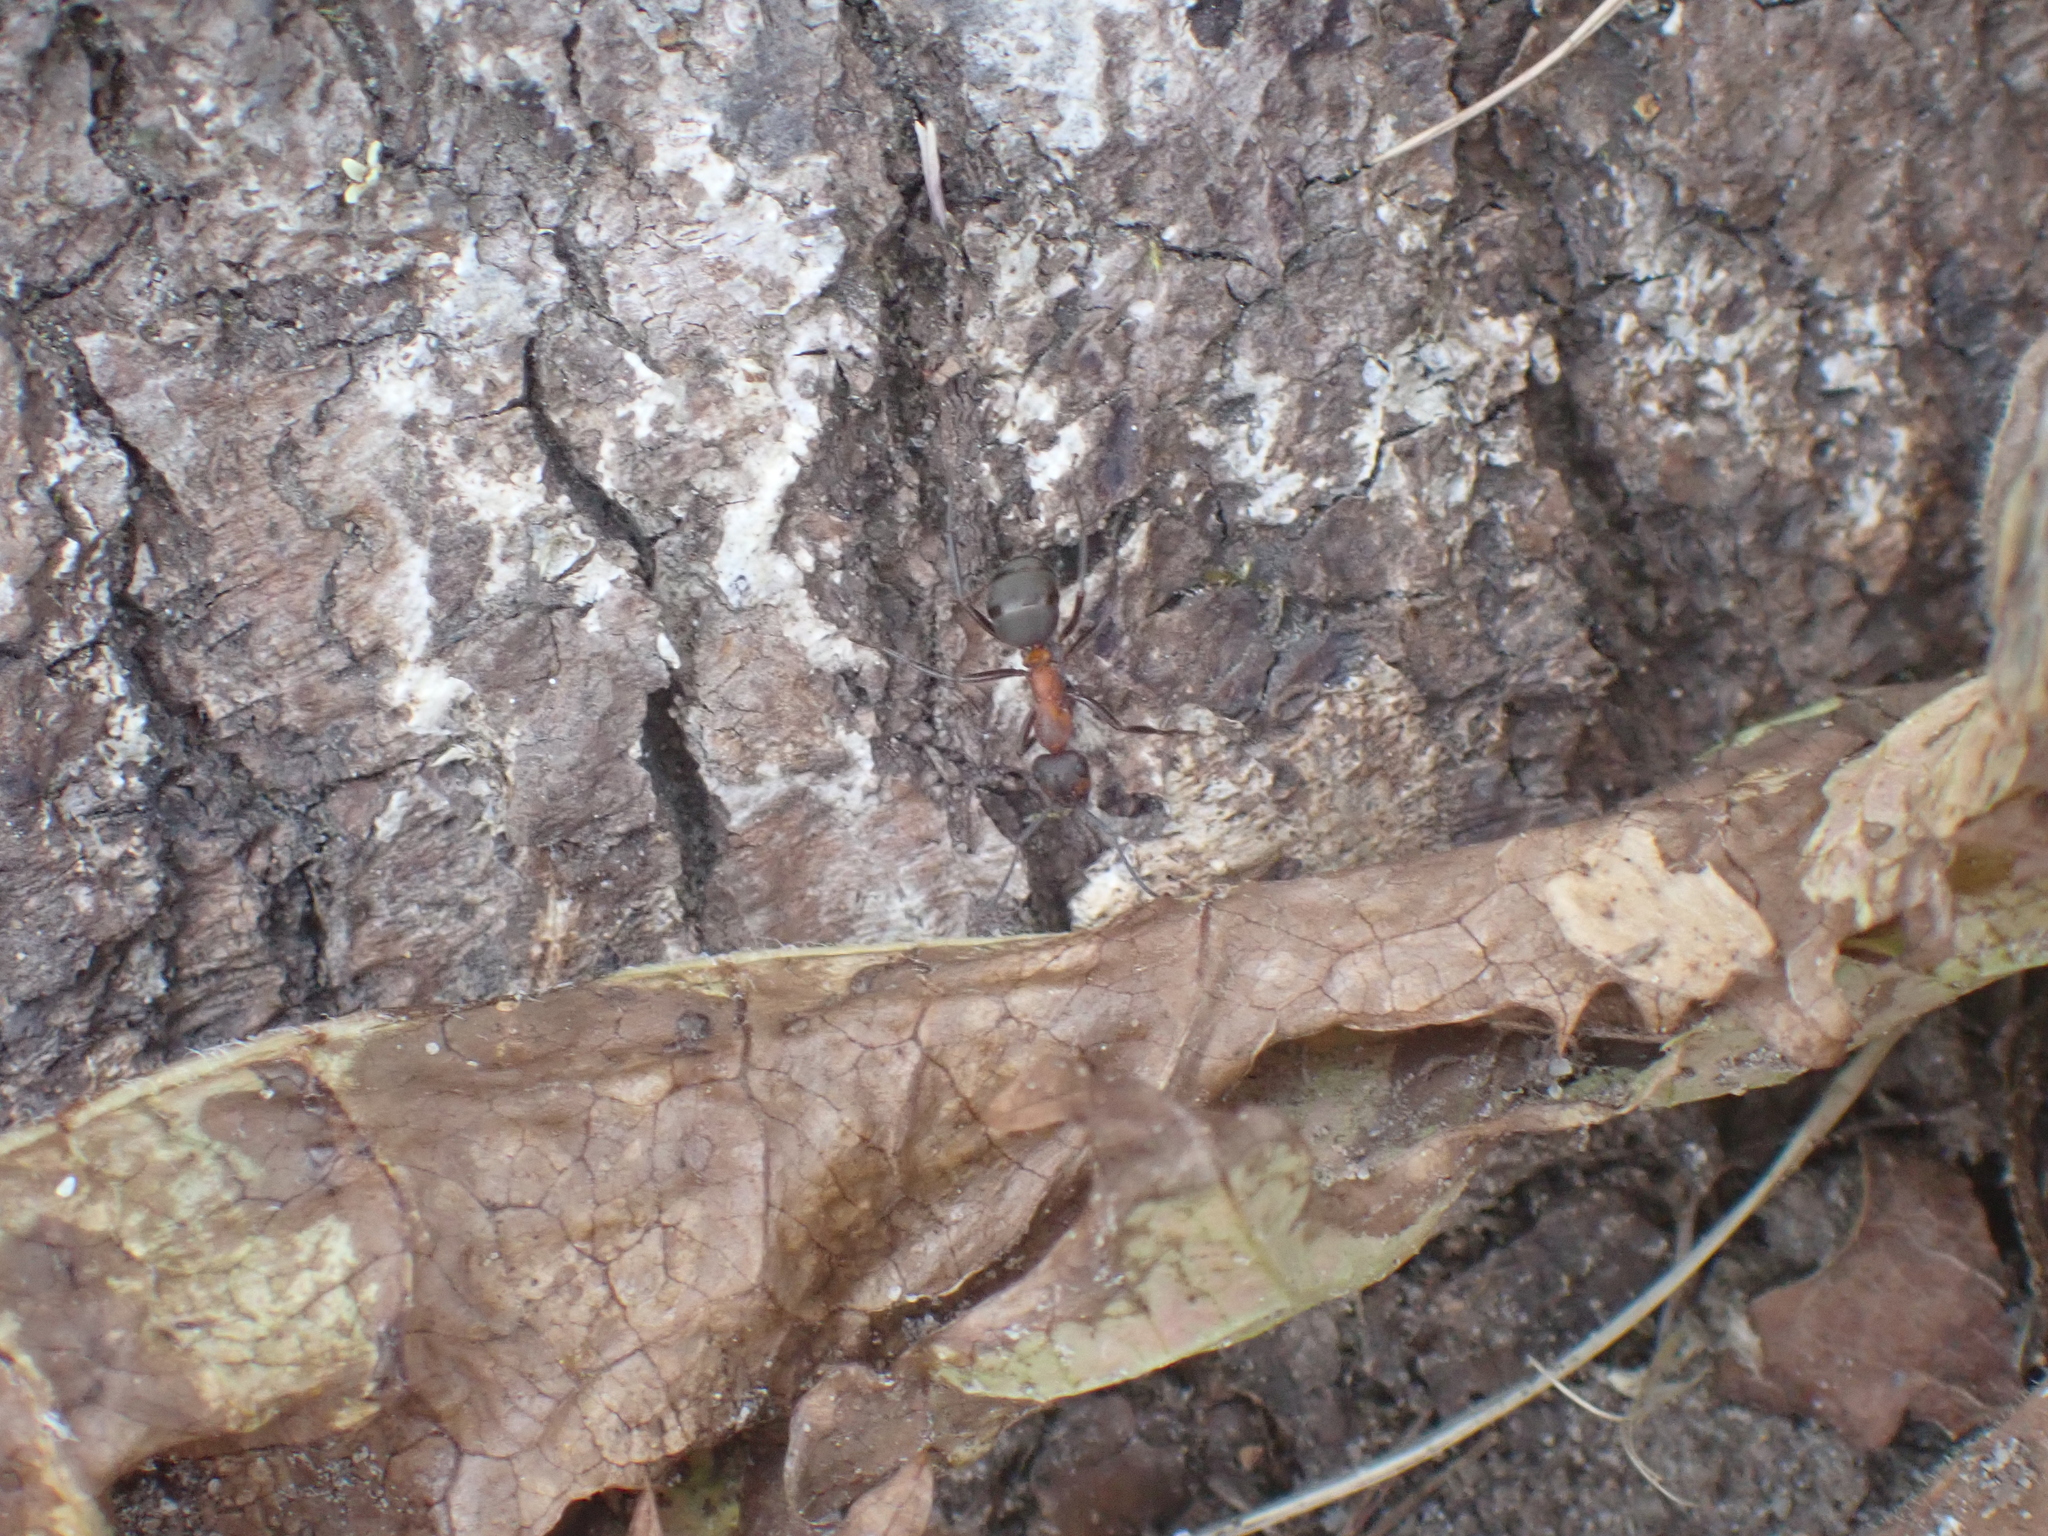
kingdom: Animalia
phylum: Arthropoda
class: Insecta
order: Hymenoptera
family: Formicidae
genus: Formica
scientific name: Formica
